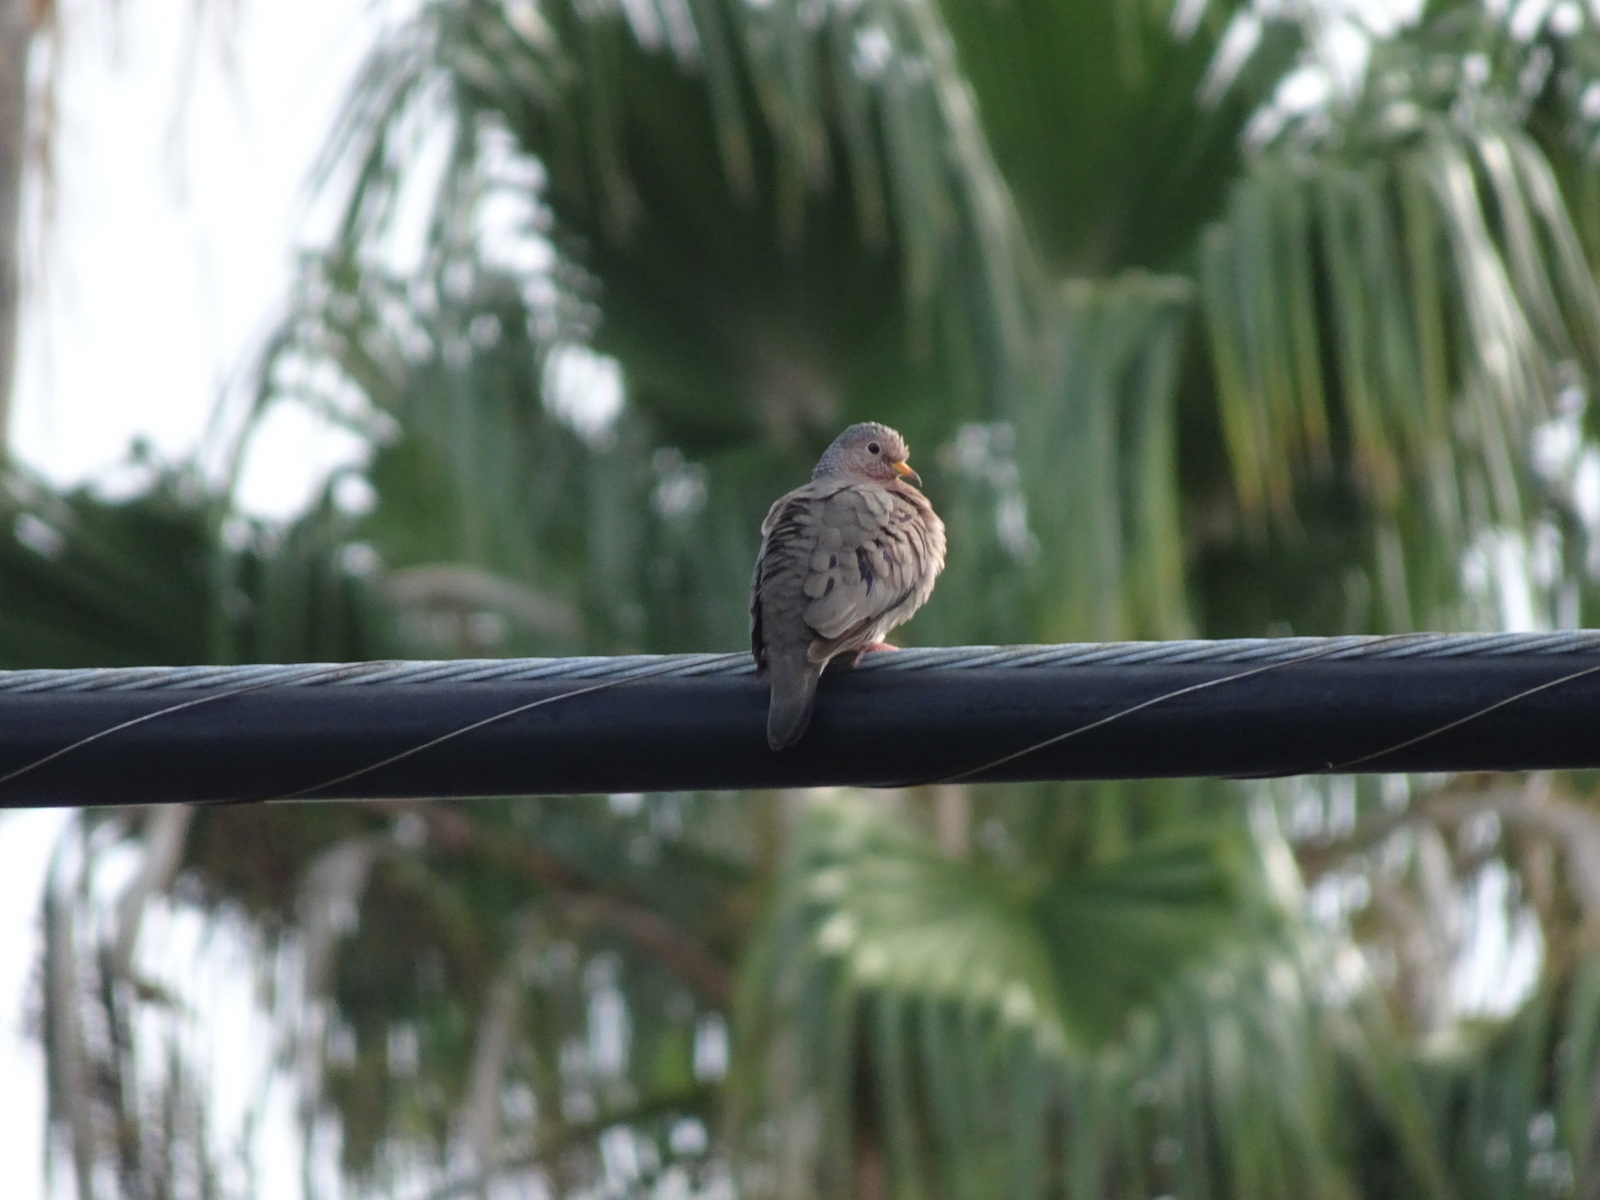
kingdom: Animalia
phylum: Chordata
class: Aves
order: Columbiformes
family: Columbidae
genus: Columbina
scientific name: Columbina passerina
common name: Common ground-dove
